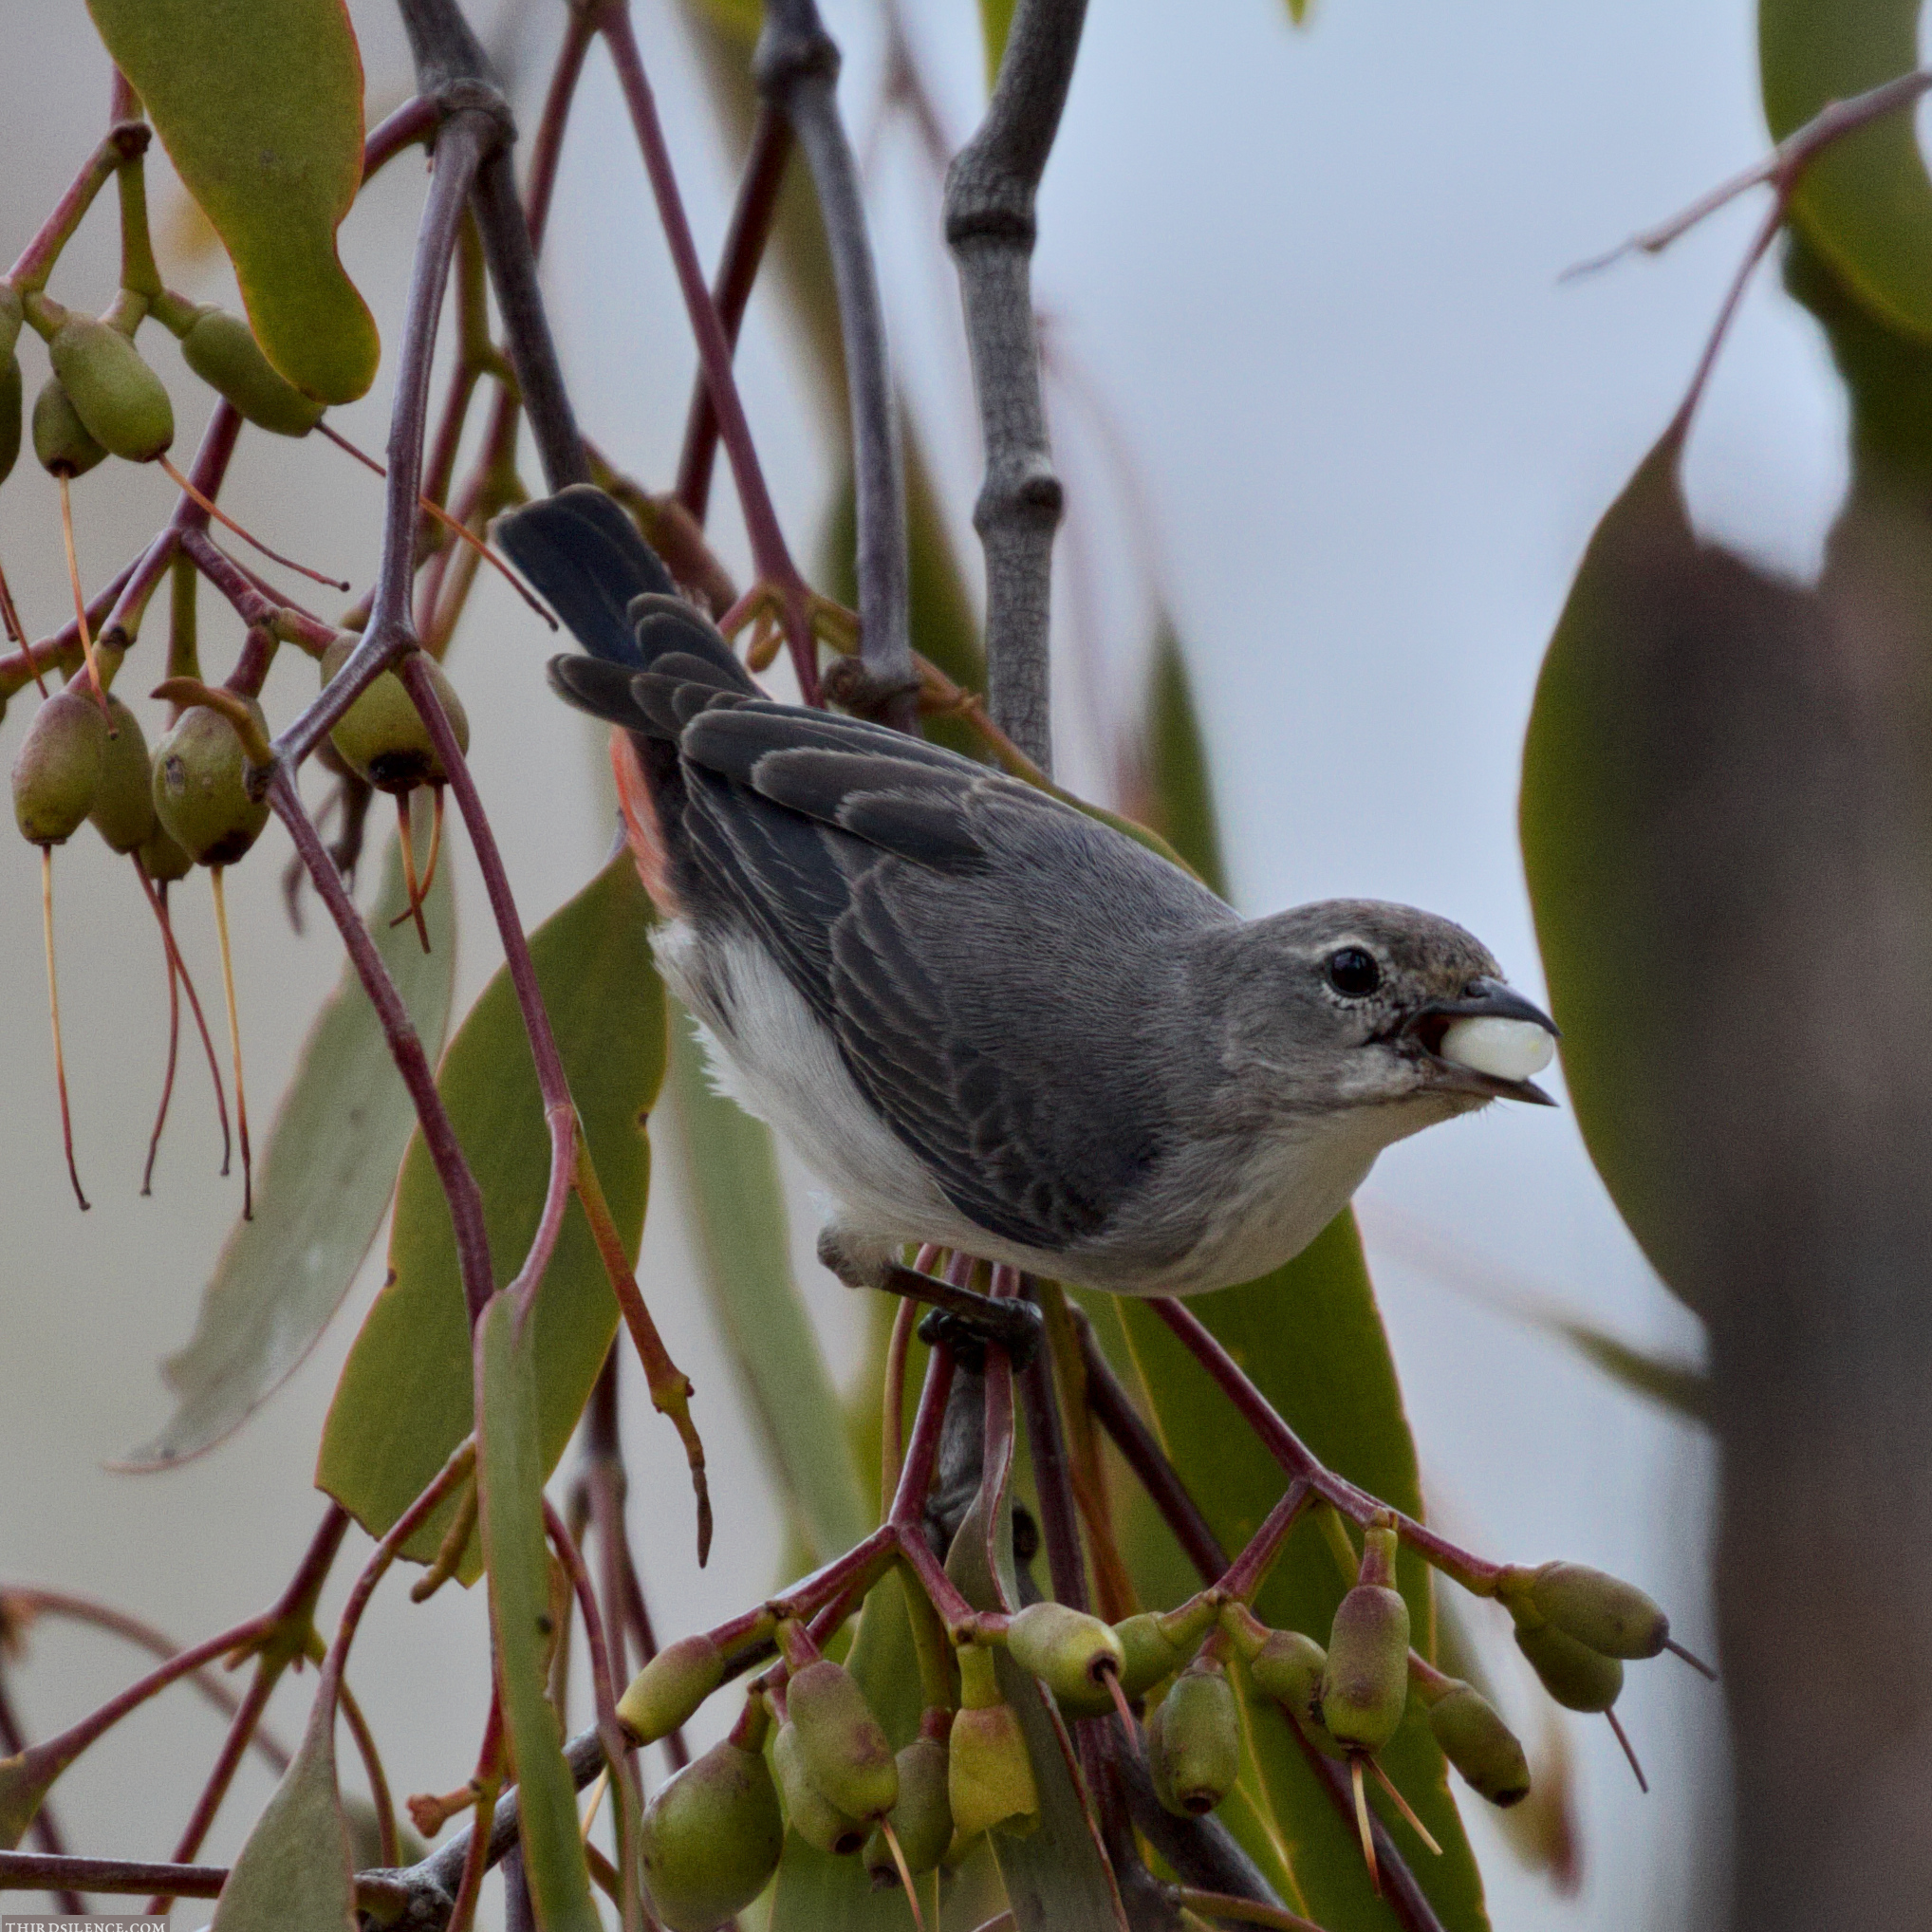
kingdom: Animalia
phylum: Chordata
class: Aves
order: Passeriformes
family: Dicaeidae
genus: Dicaeum
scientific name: Dicaeum hirundinaceum
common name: Mistletoebird
